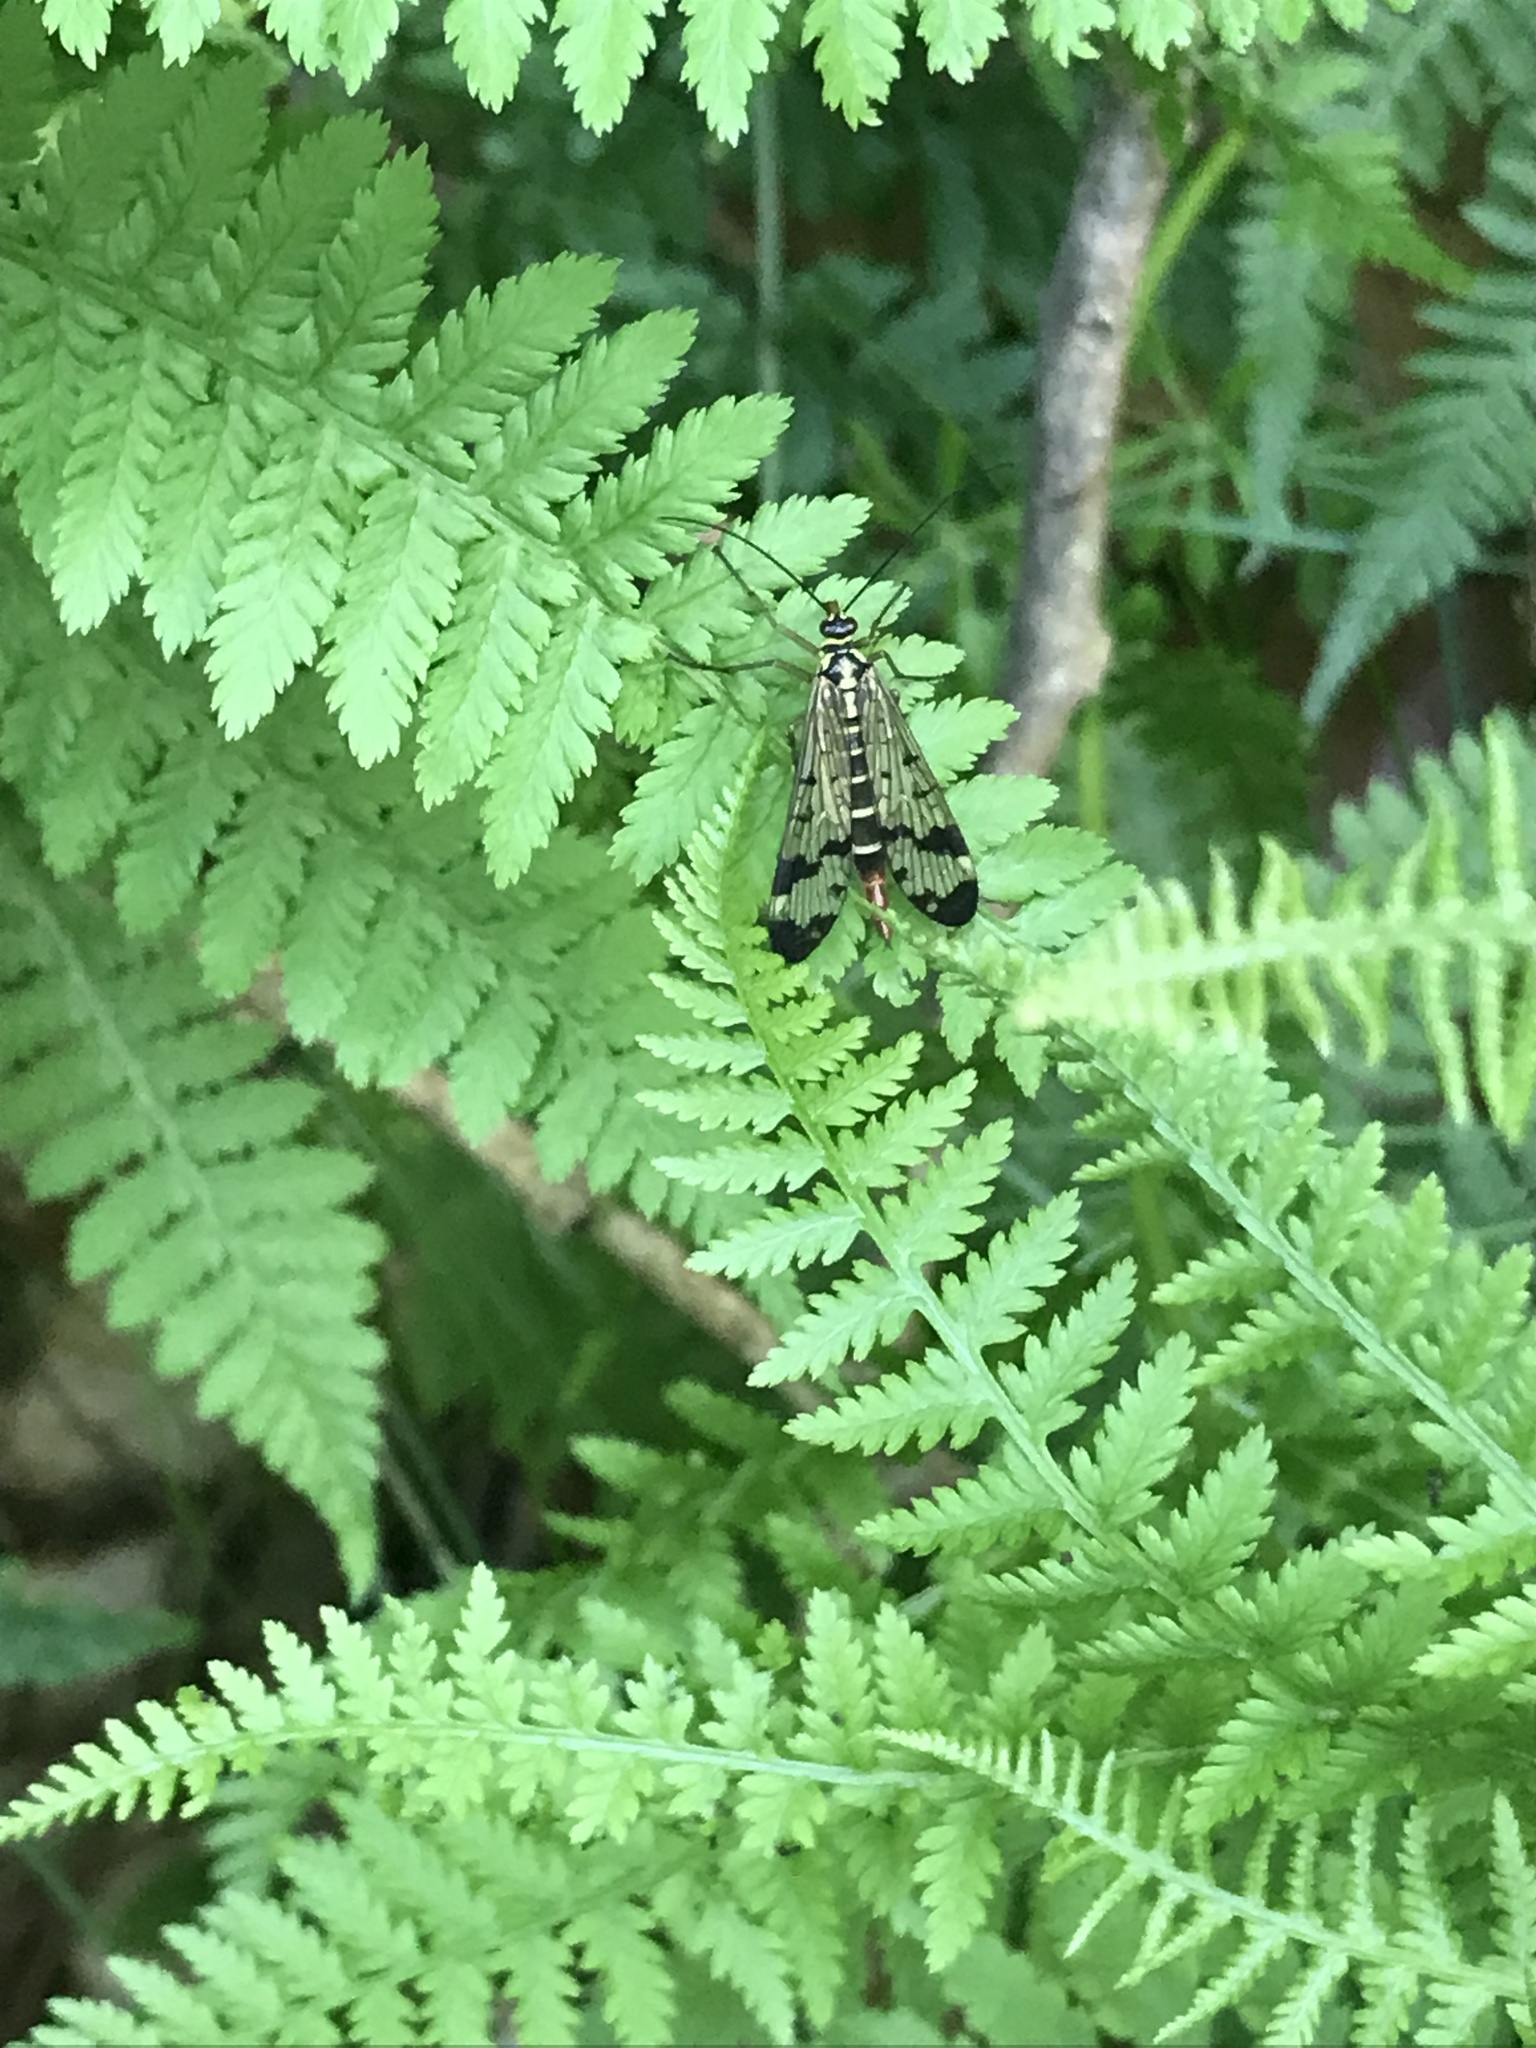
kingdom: Animalia
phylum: Arthropoda
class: Insecta
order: Mecoptera
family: Panorpidae
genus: Panorpa
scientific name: Panorpa communis
